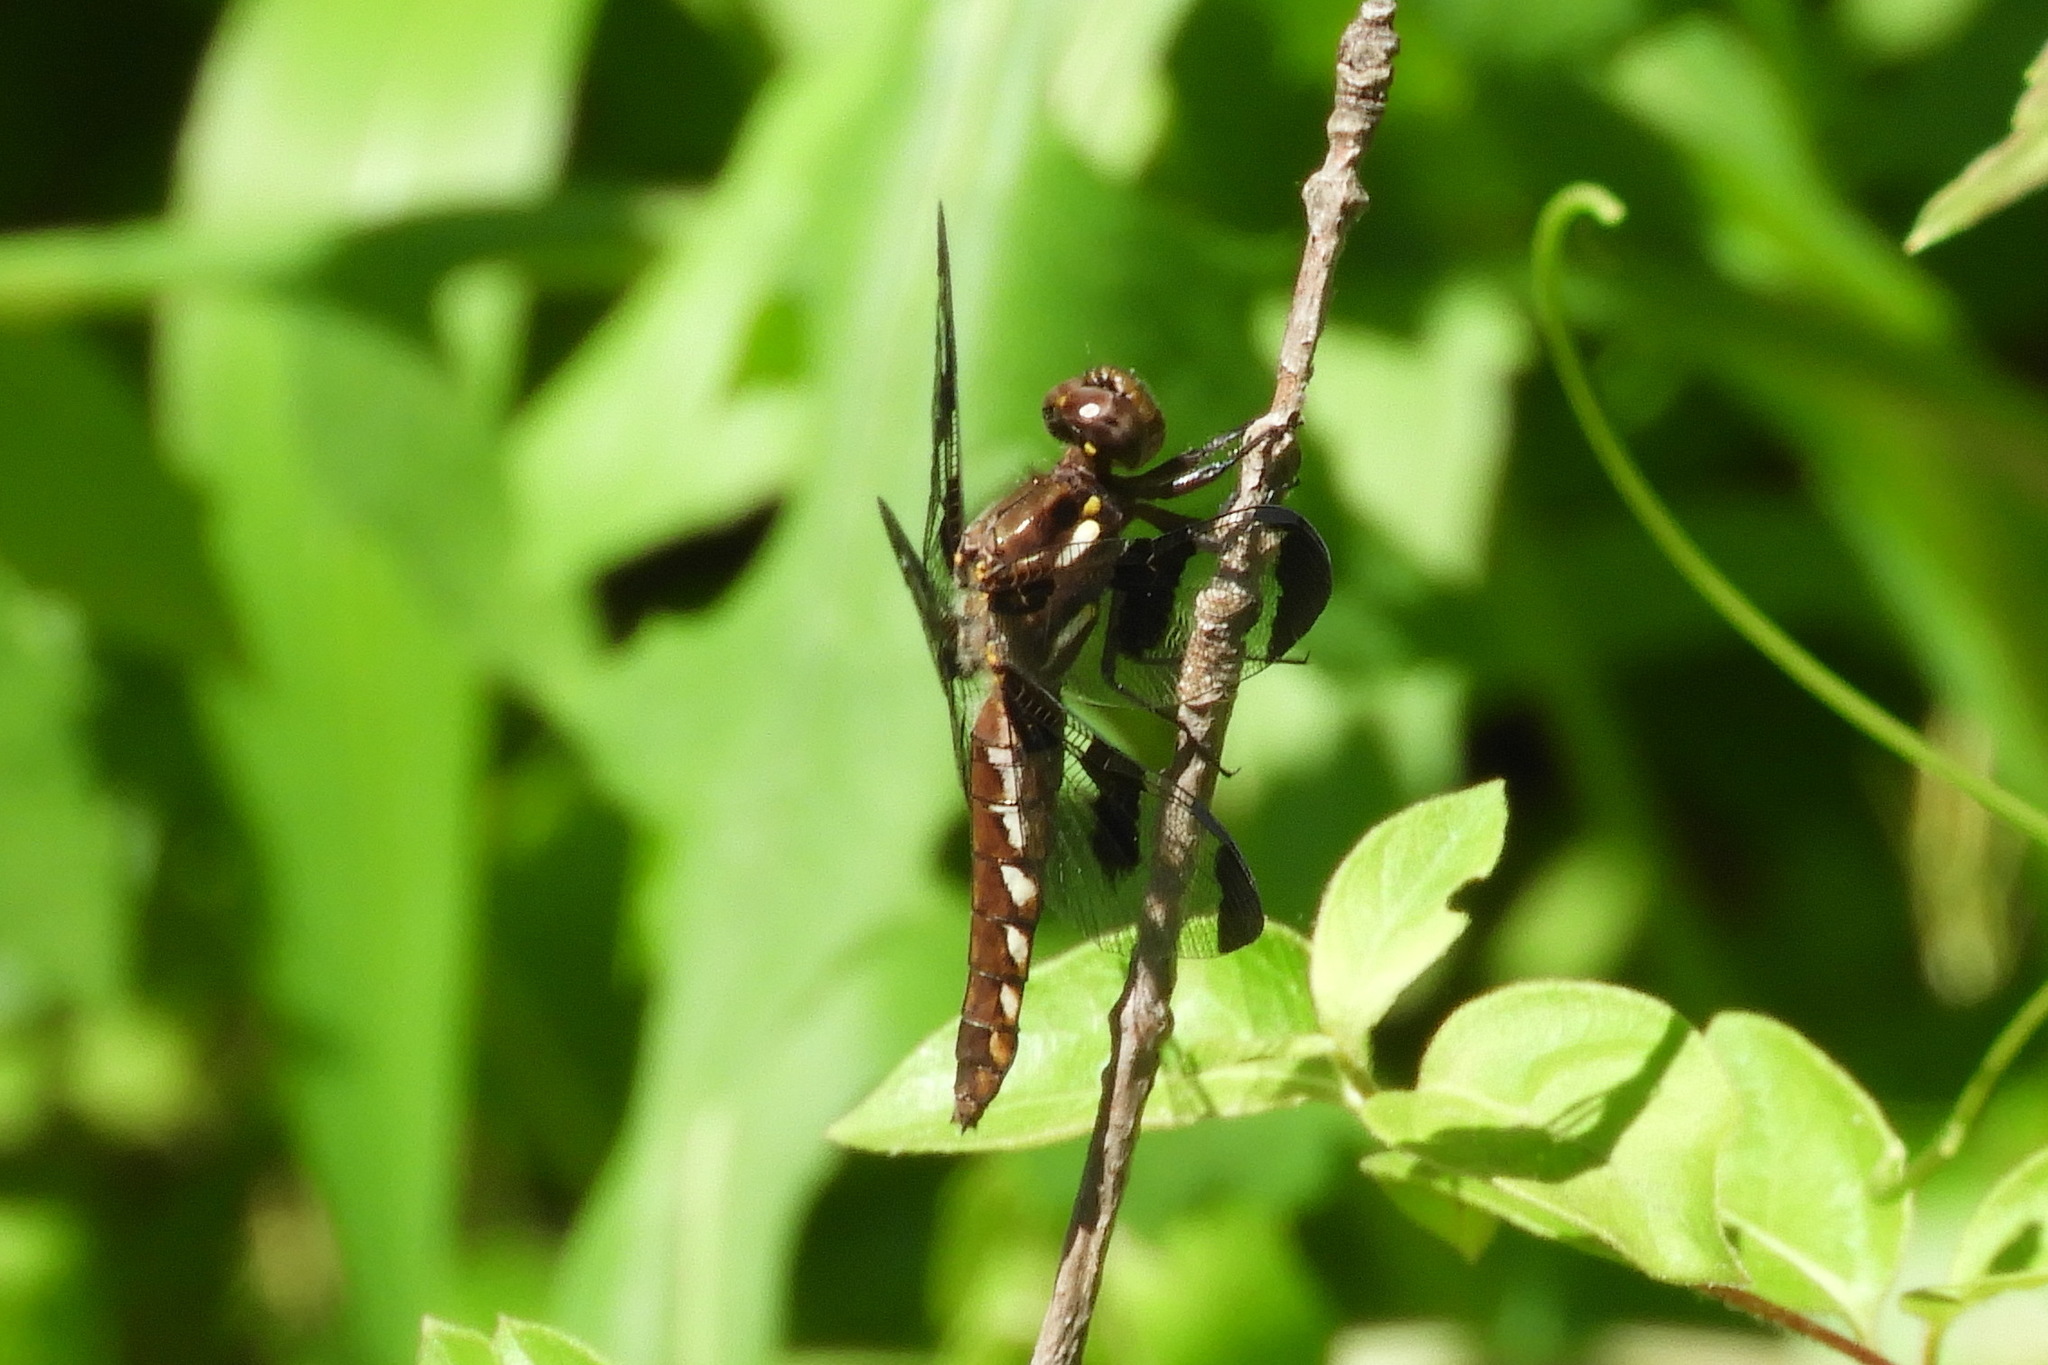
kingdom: Animalia
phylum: Arthropoda
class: Insecta
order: Odonata
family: Libellulidae
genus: Plathemis
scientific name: Plathemis lydia
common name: Common whitetail
